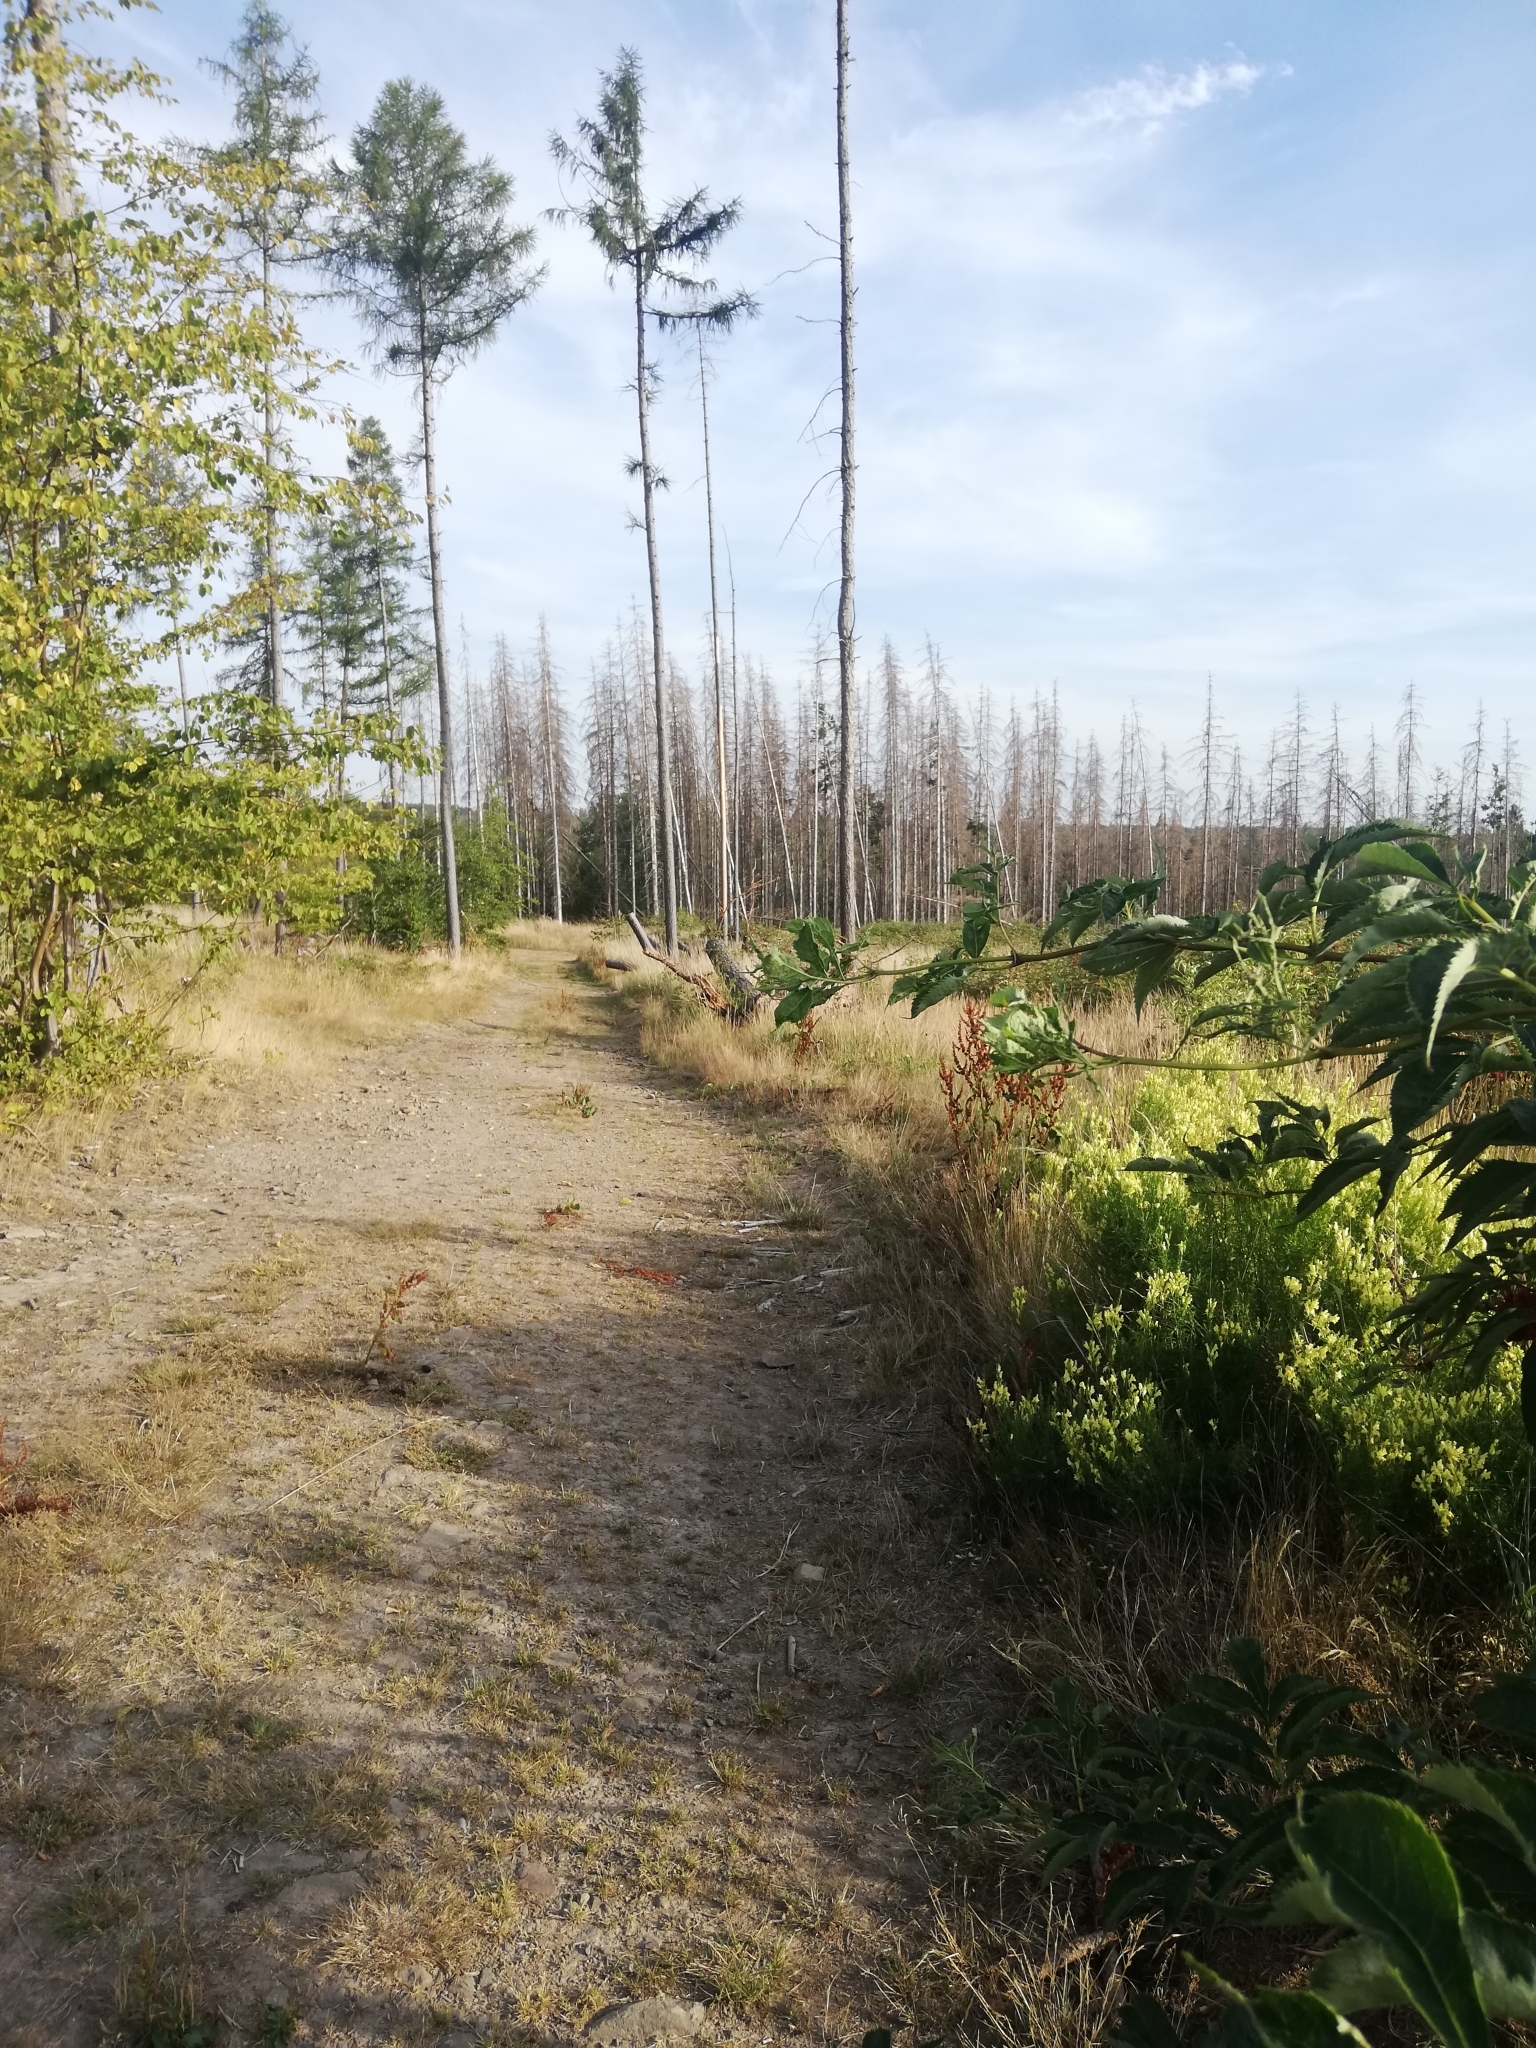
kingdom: Plantae
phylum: Tracheophyta
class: Magnoliopsida
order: Lamiales
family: Plantaginaceae
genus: Linaria
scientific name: Linaria vulgaris
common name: Butter and eggs
